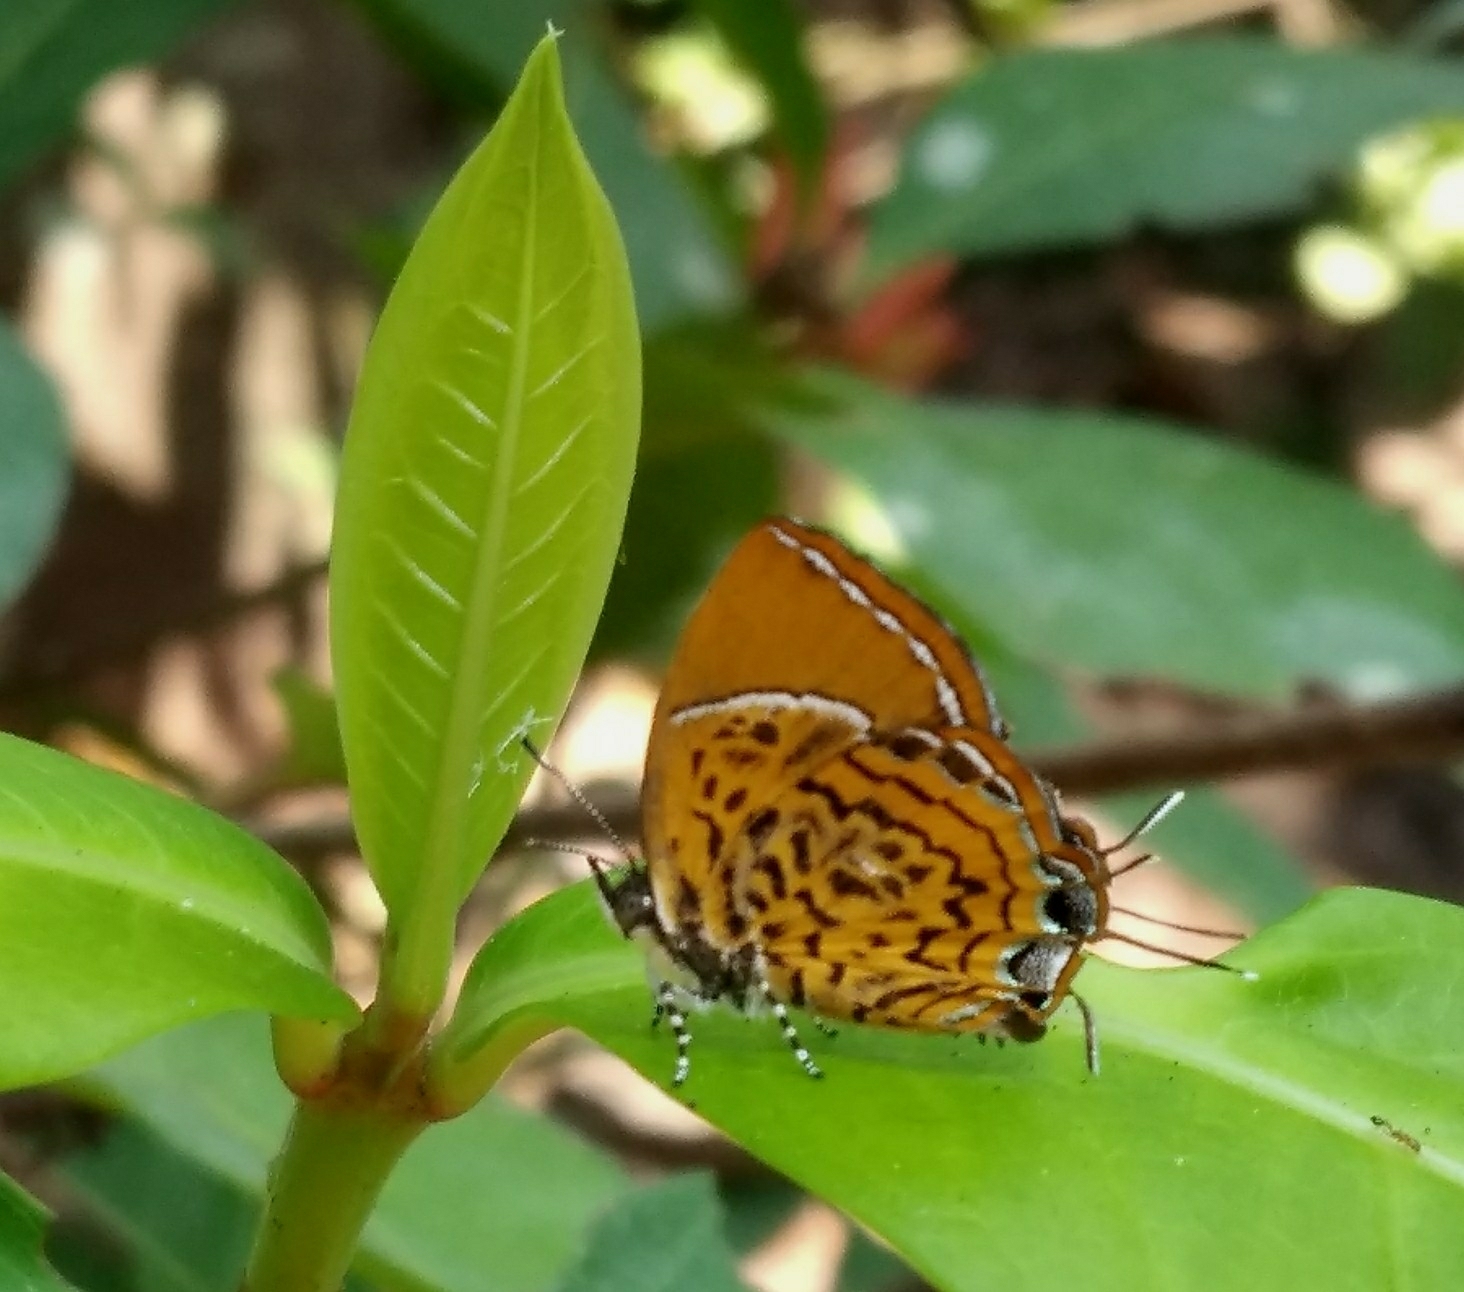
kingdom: Animalia
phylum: Arthropoda
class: Insecta
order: Lepidoptera
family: Lycaenidae
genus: Rathinda
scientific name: Rathinda amor
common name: Monkey puzzle
